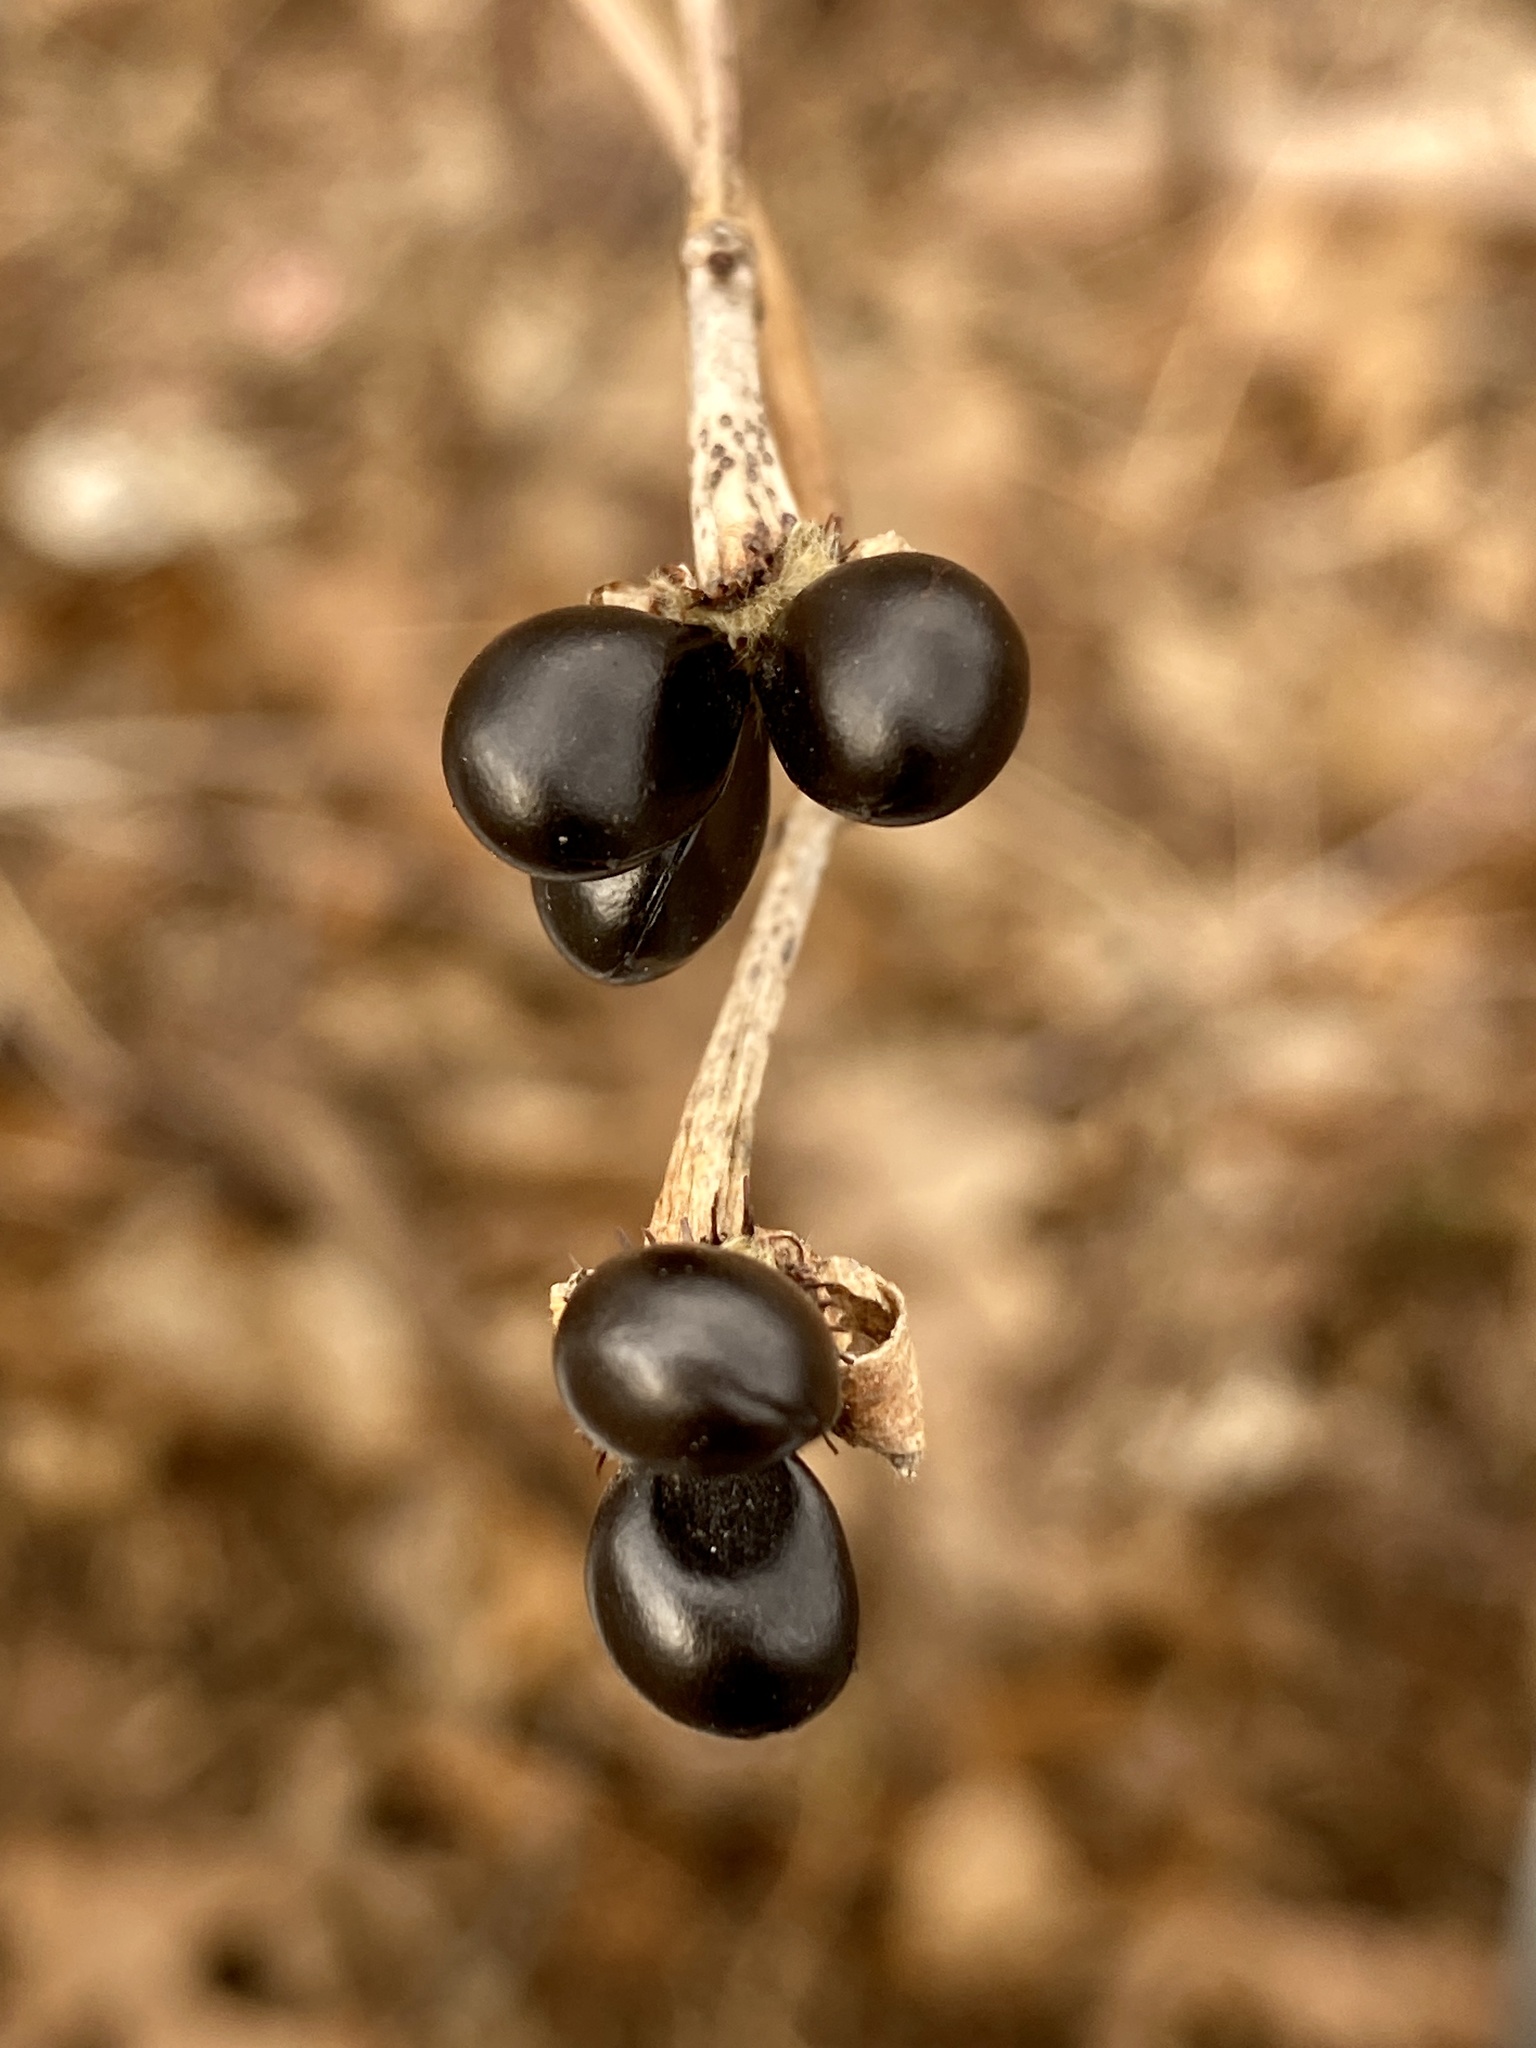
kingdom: Plantae
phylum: Tracheophyta
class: Magnoliopsida
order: Rosales
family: Rosaceae
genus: Rhodotypos
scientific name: Rhodotypos scandens
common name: Jetbead
